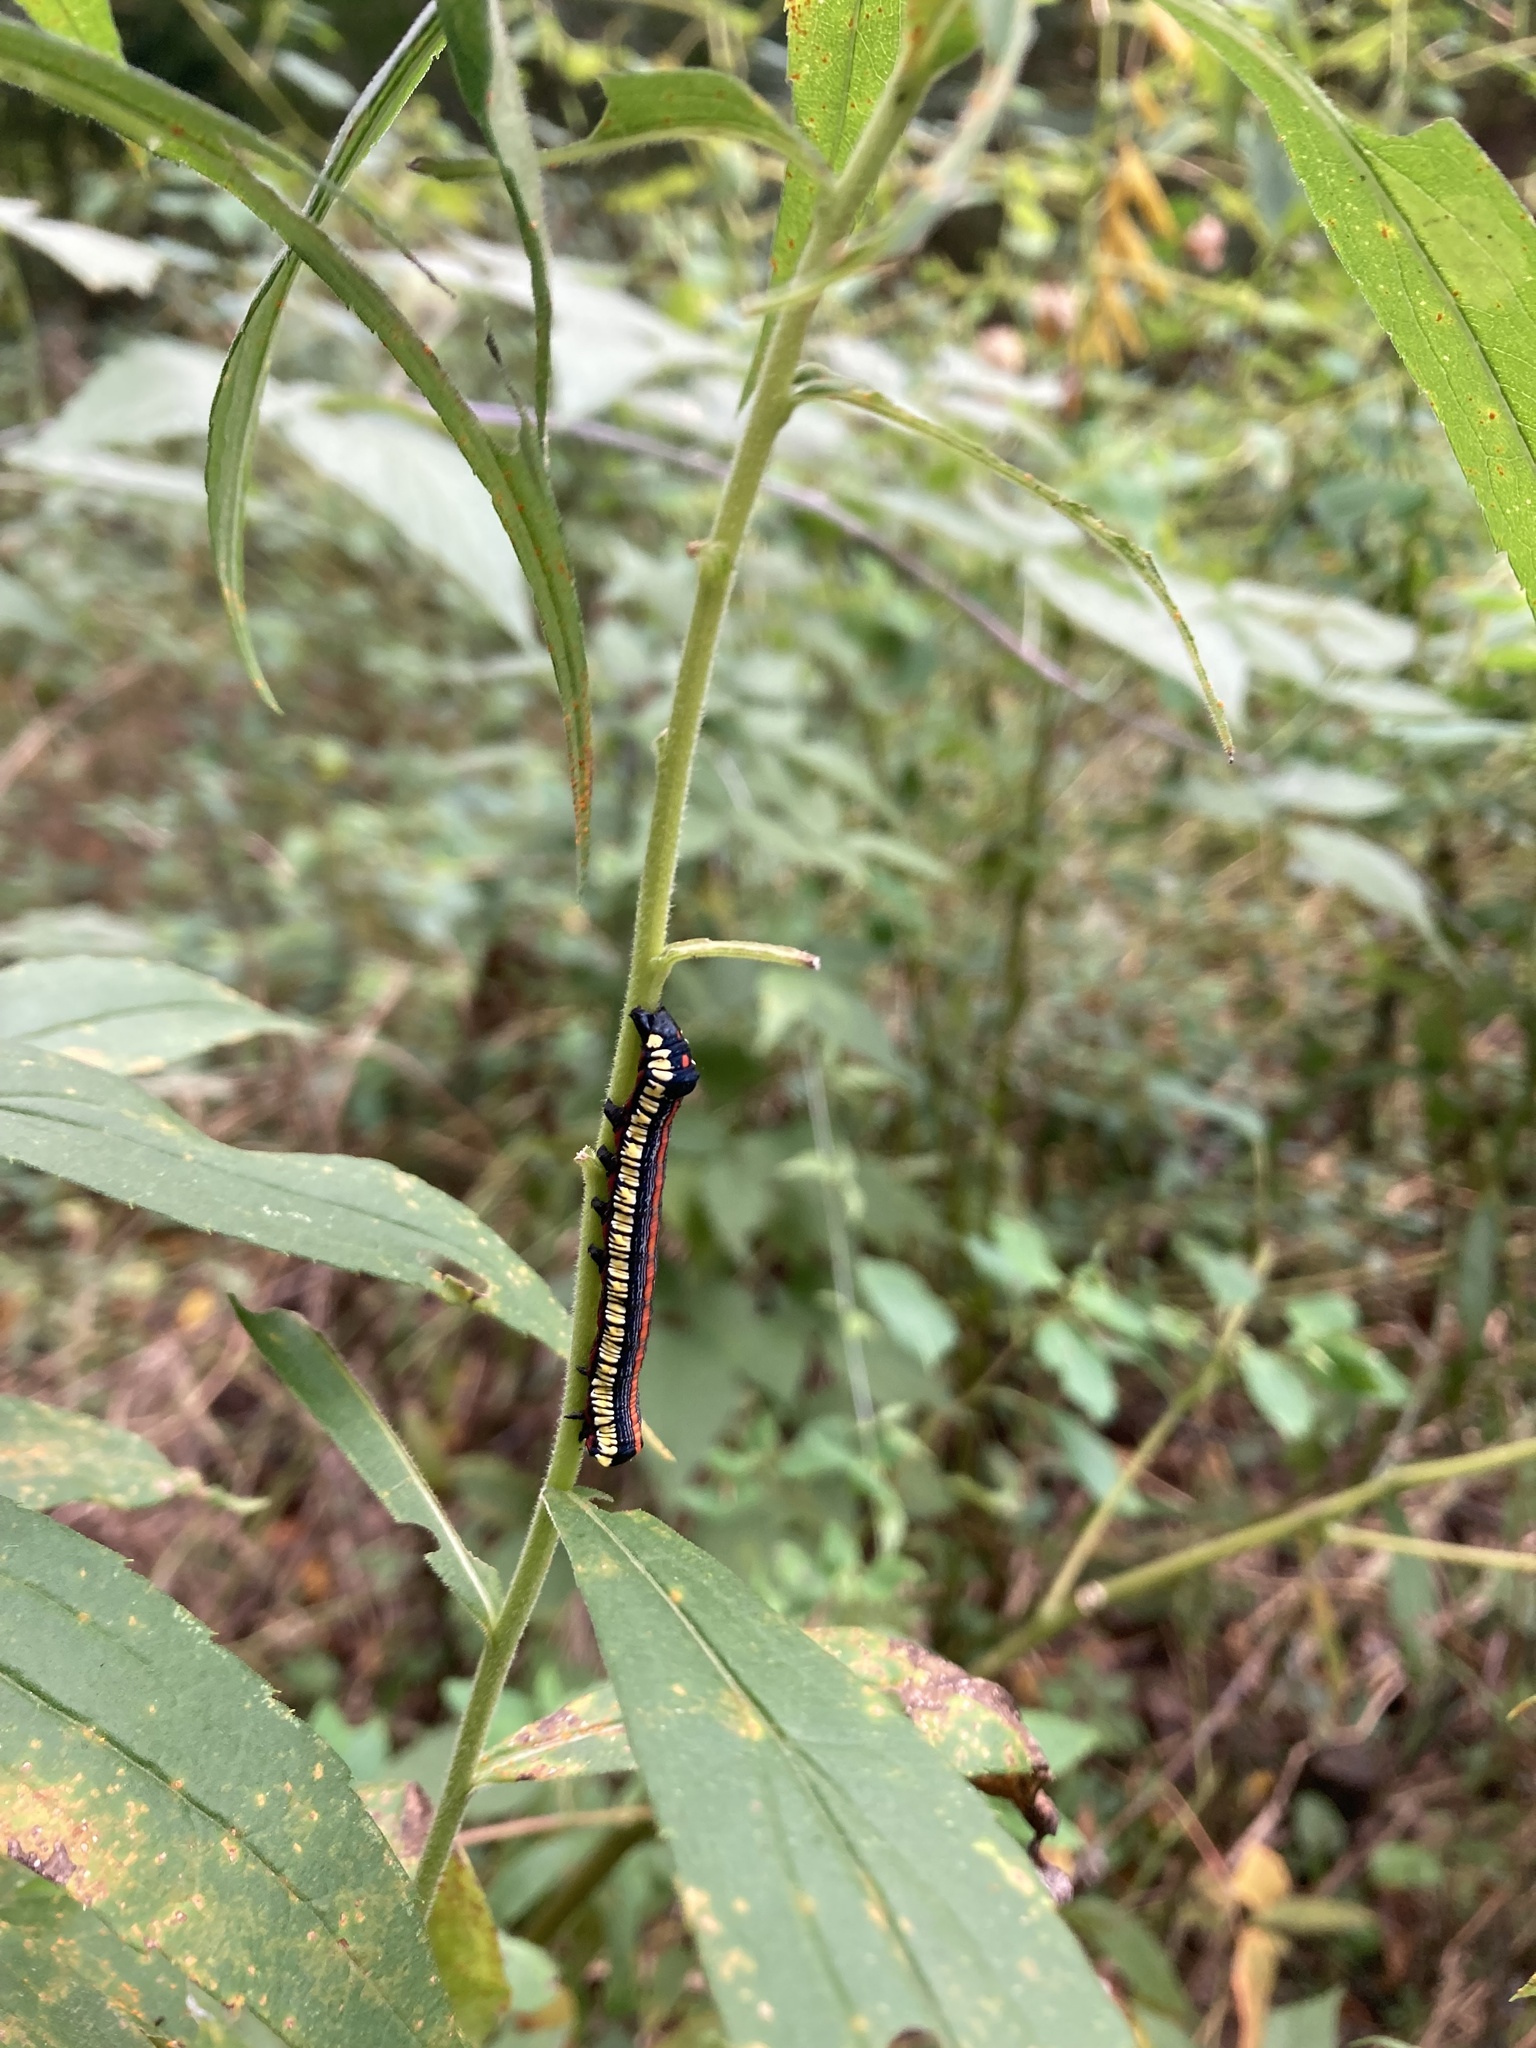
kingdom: Animalia
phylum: Arthropoda
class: Insecta
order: Lepidoptera
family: Noctuidae
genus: Cucullia
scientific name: Cucullia convexipennis
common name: Brown-hooded owlet
